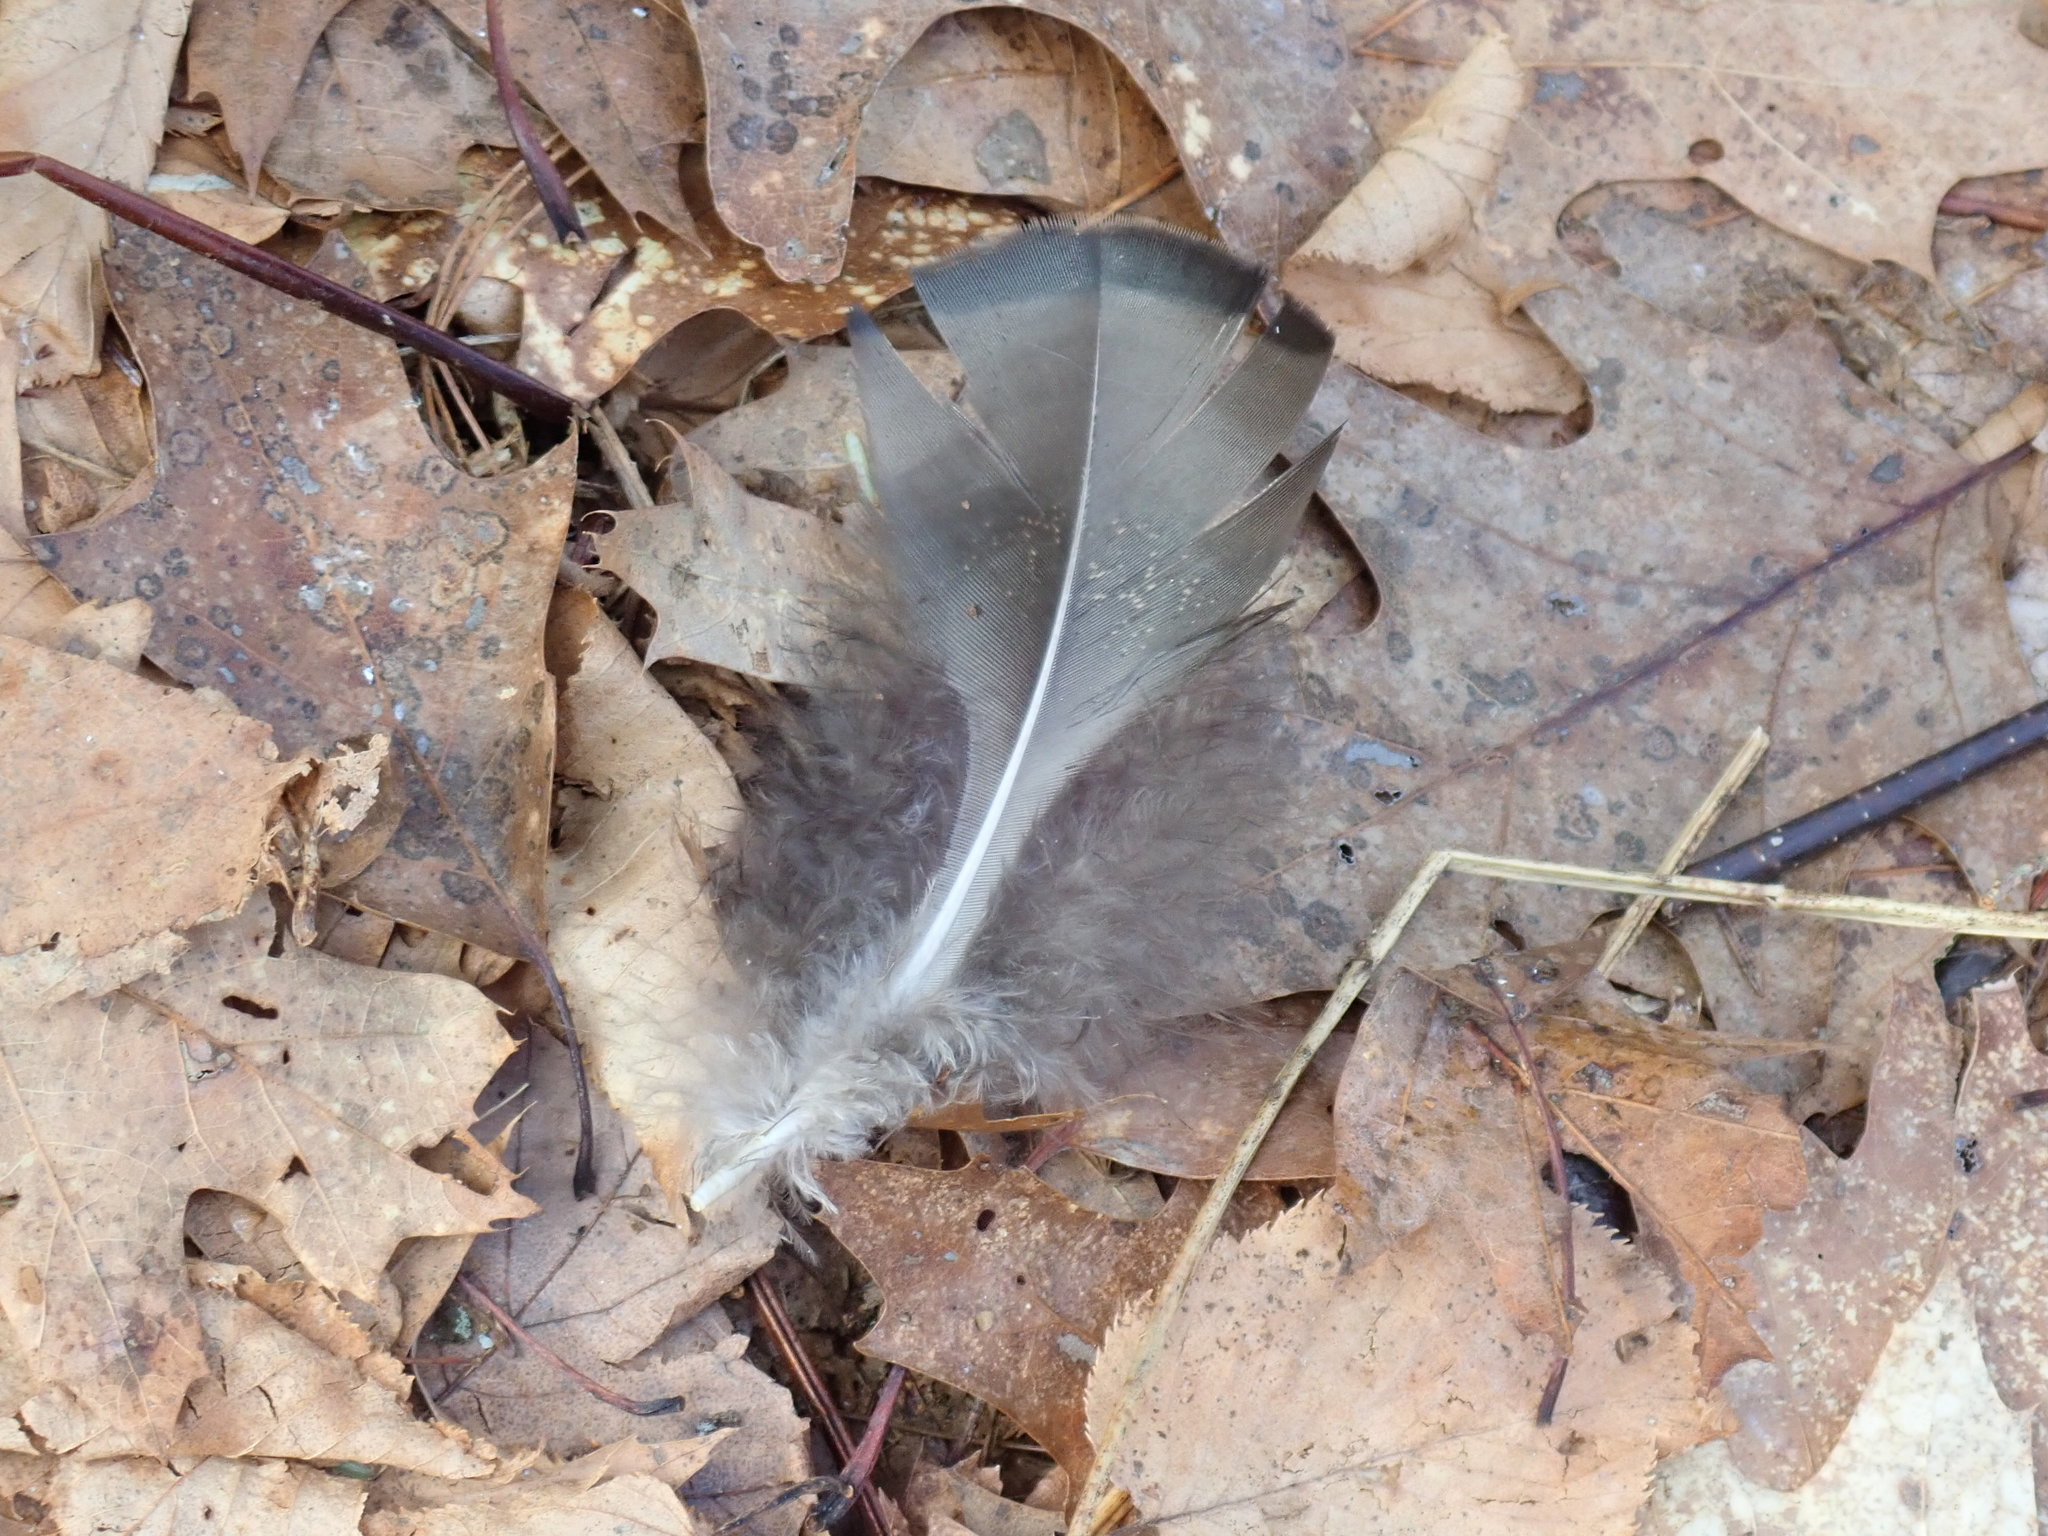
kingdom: Animalia
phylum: Chordata
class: Aves
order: Galliformes
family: Phasianidae
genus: Meleagris
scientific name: Meleagris gallopavo
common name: Wild turkey
